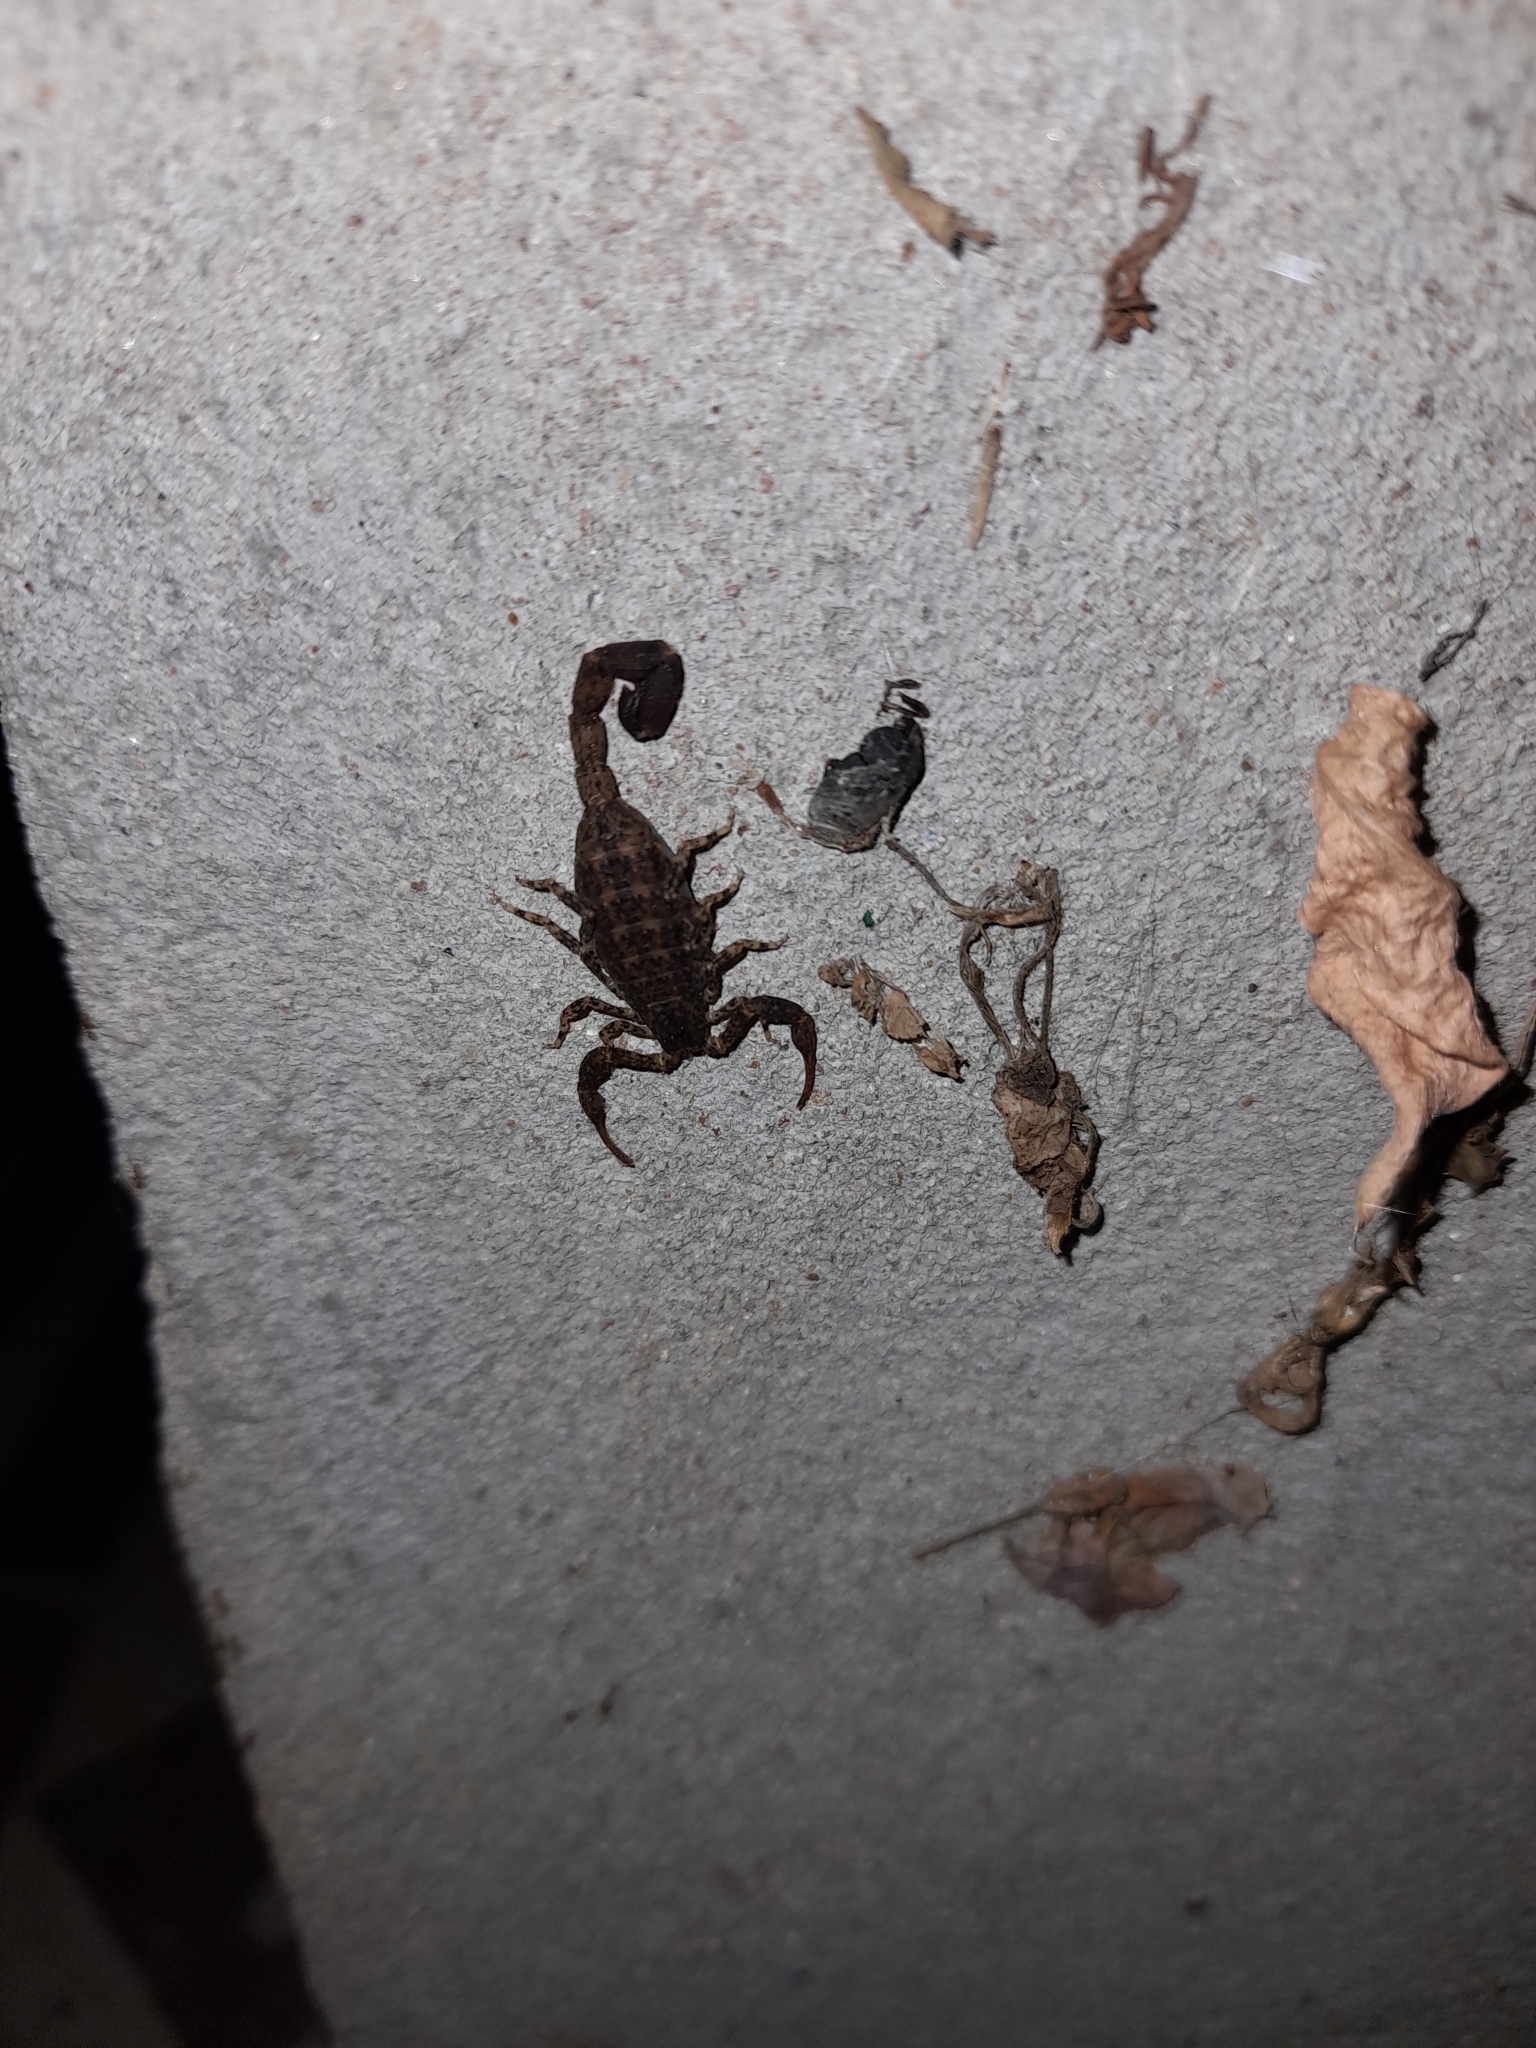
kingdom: Animalia
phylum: Arthropoda
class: Arachnida
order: Scorpiones
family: Buthidae
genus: Tityus
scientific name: Tityus paraguayensis
